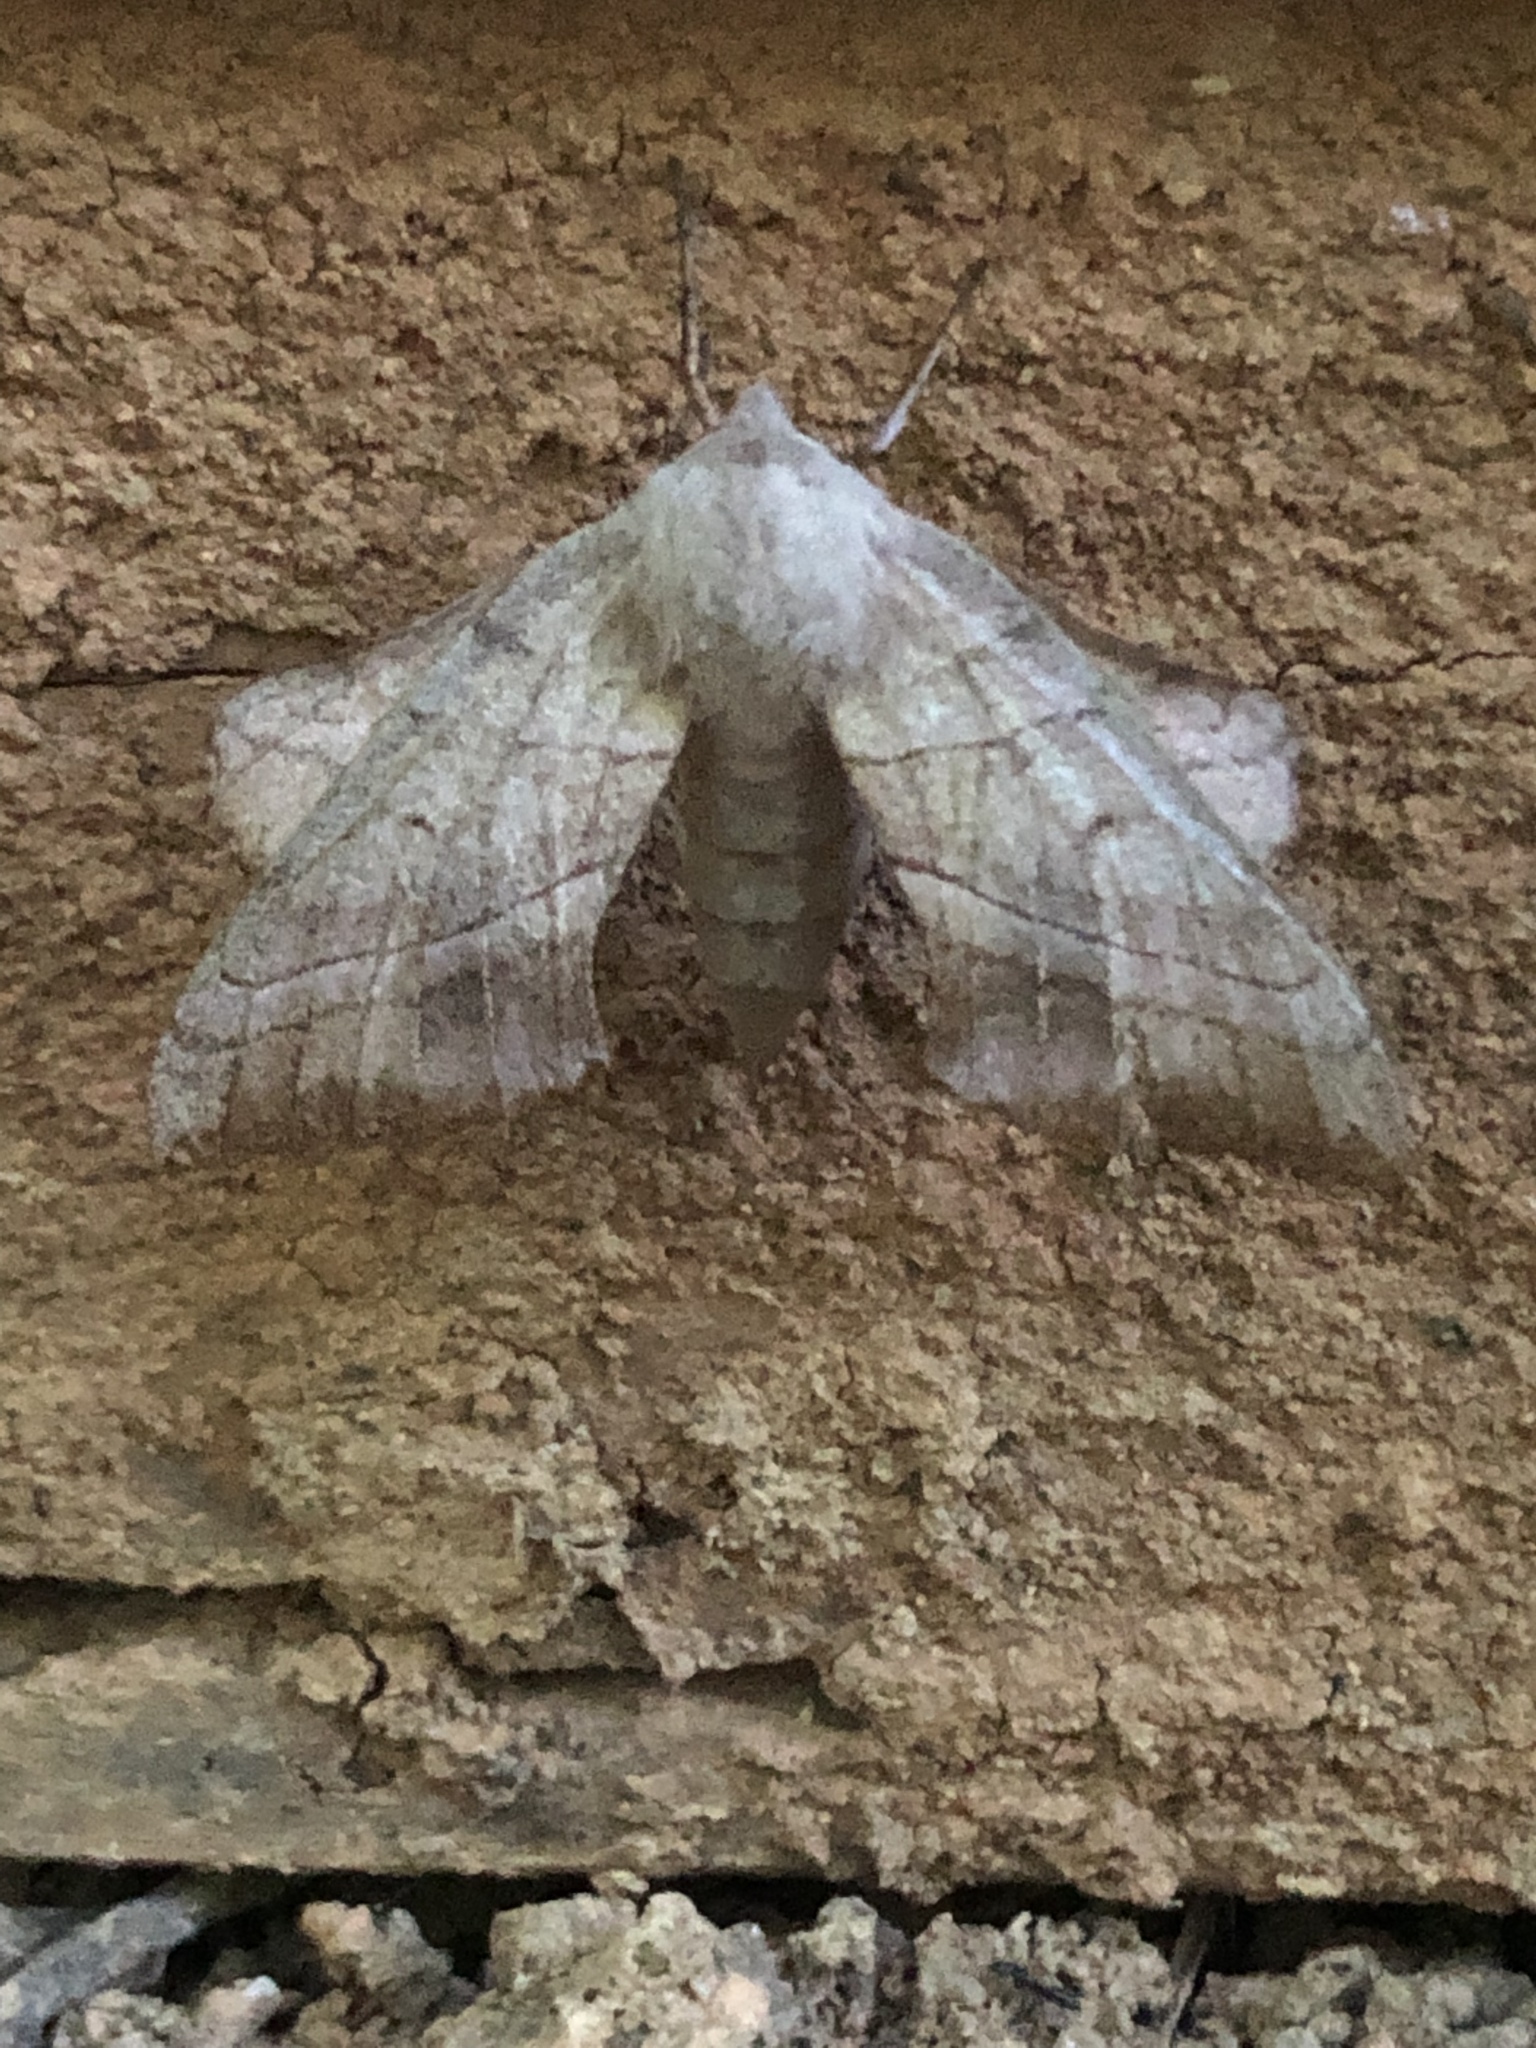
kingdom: Animalia
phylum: Arthropoda
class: Insecta
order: Lepidoptera
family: Sphingidae
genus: Amorpha
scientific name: Amorpha juglandis
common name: Walnut sphinx
